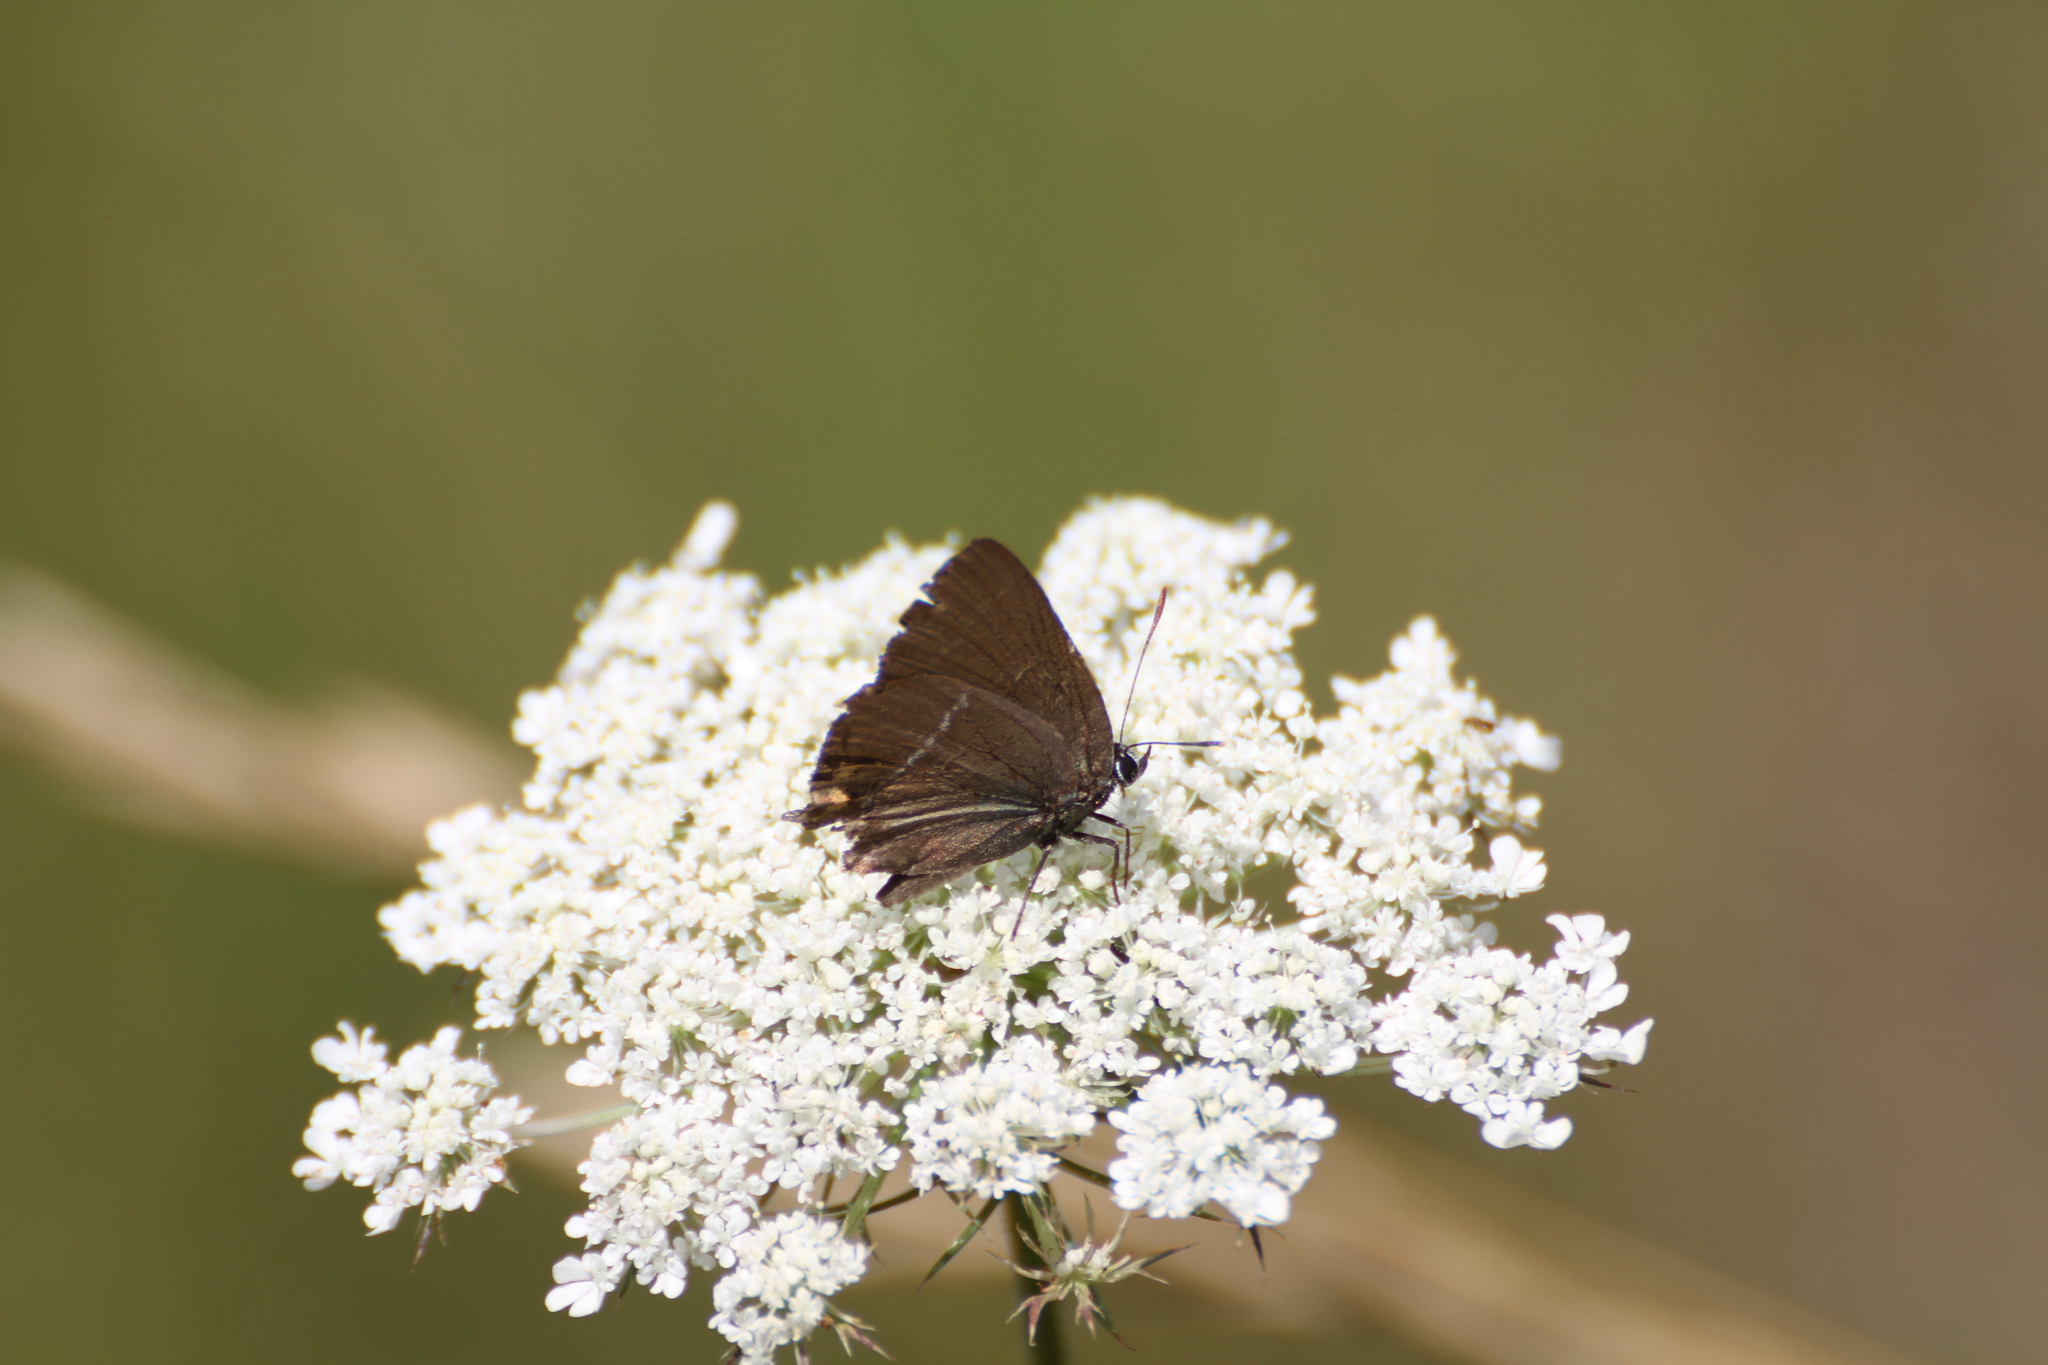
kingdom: Animalia
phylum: Arthropoda
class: Insecta
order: Lepidoptera
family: Lycaenidae
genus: Tuttiola
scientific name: Tuttiola spini
